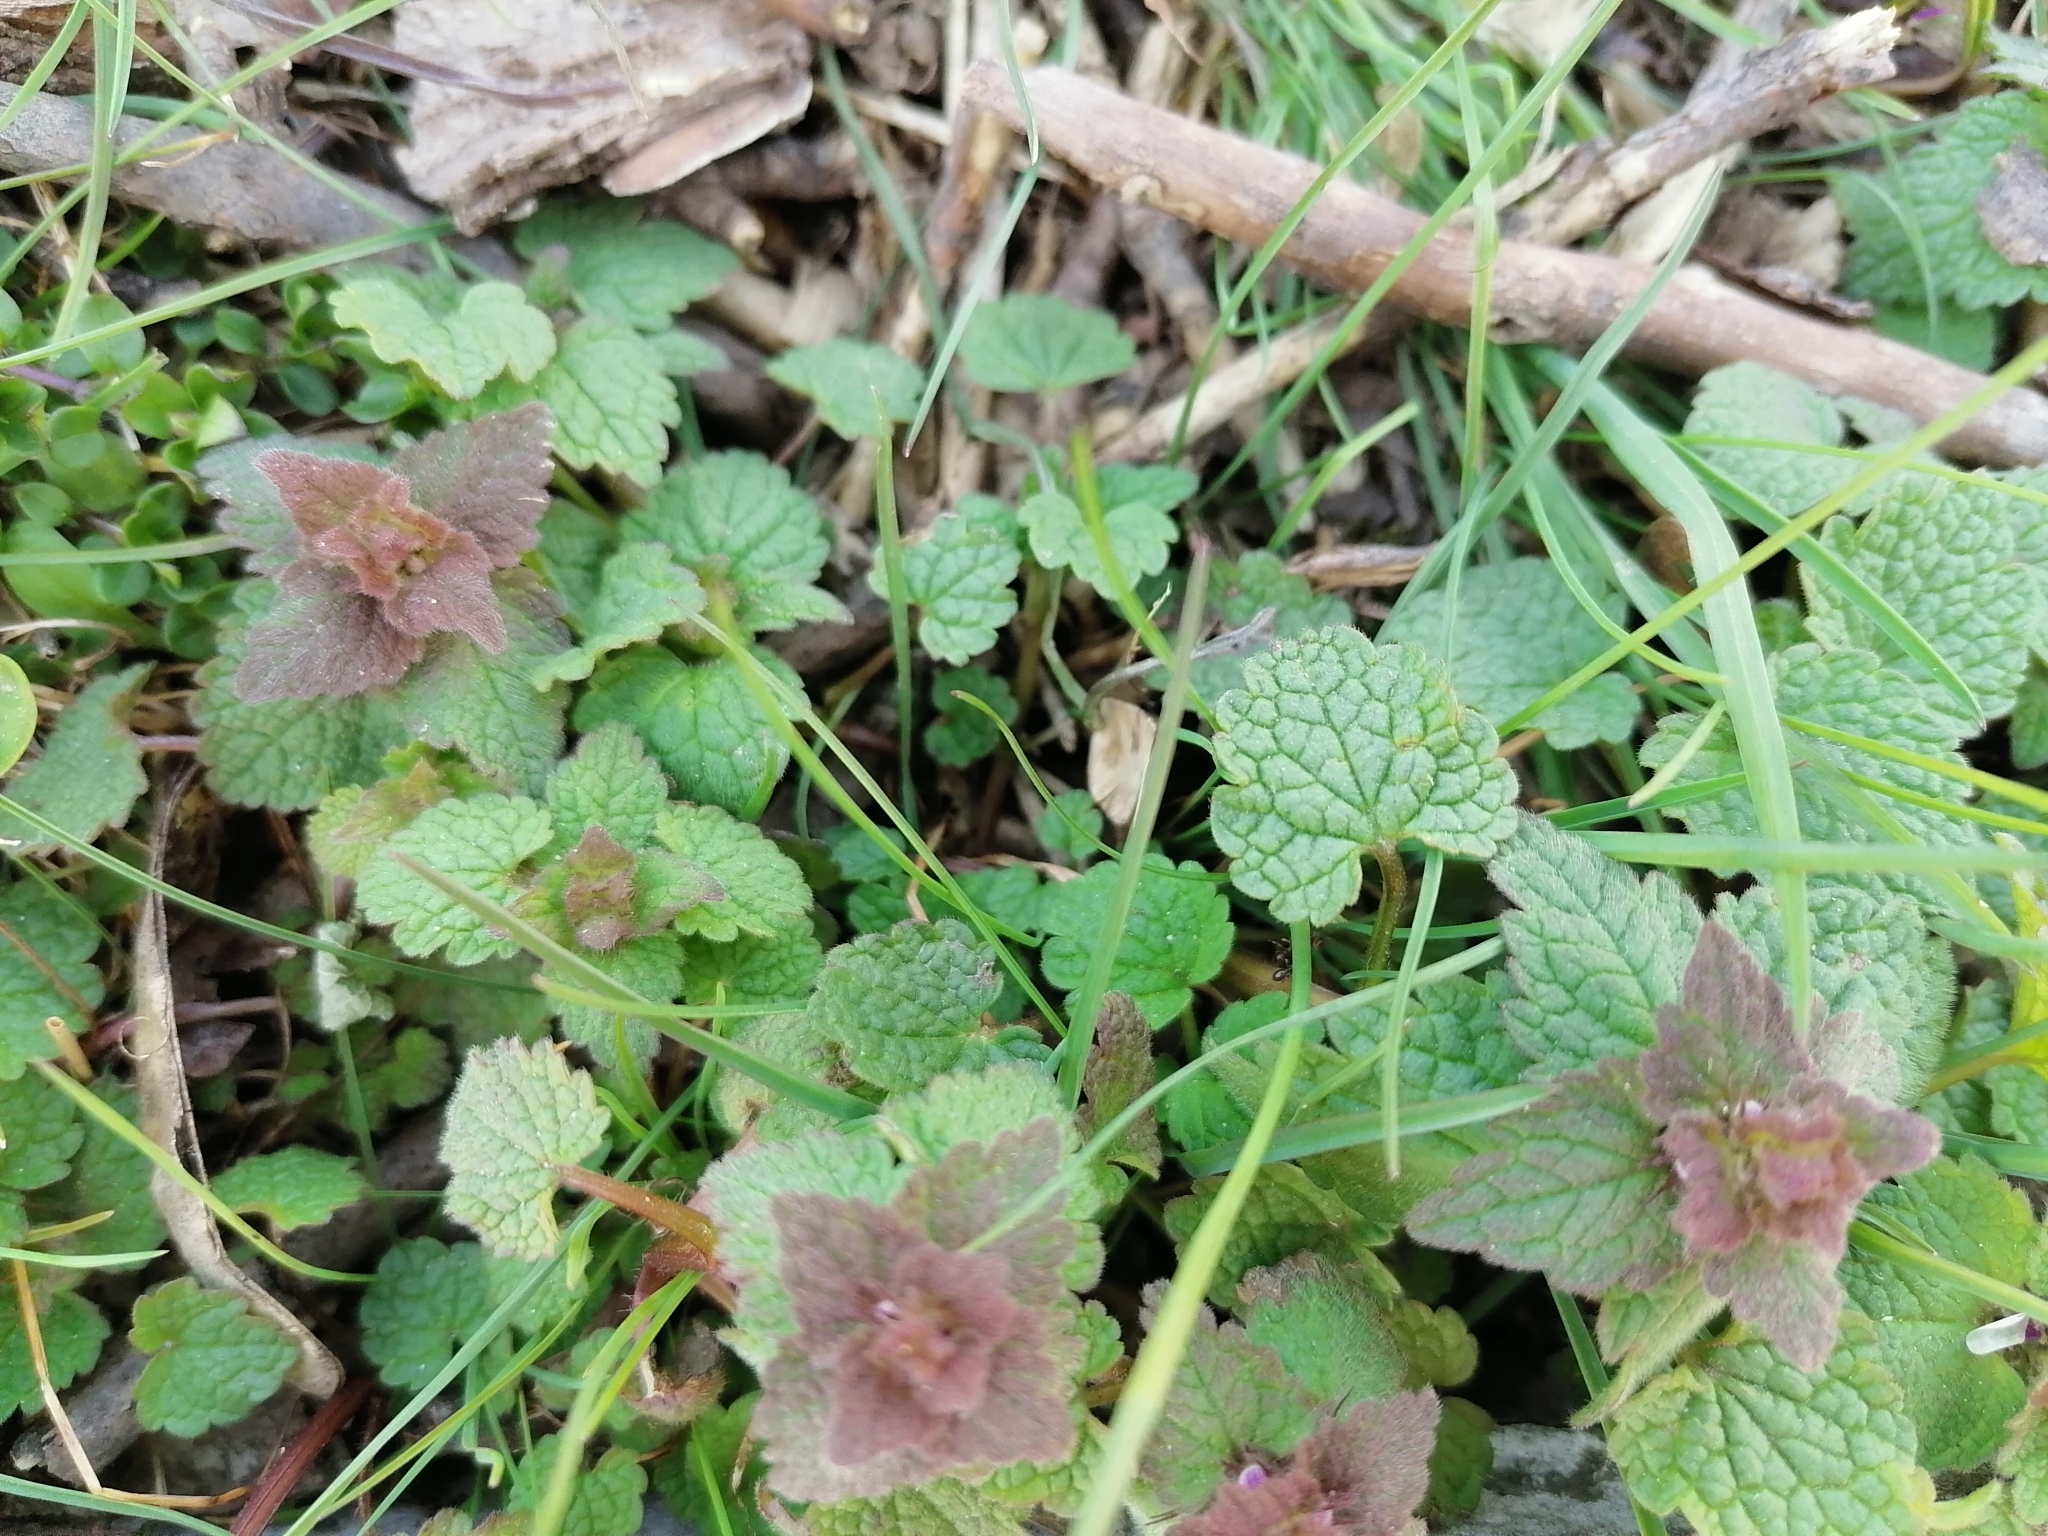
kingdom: Plantae
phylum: Tracheophyta
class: Magnoliopsida
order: Lamiales
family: Lamiaceae
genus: Lamium
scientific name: Lamium purpureum
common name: Red dead-nettle
